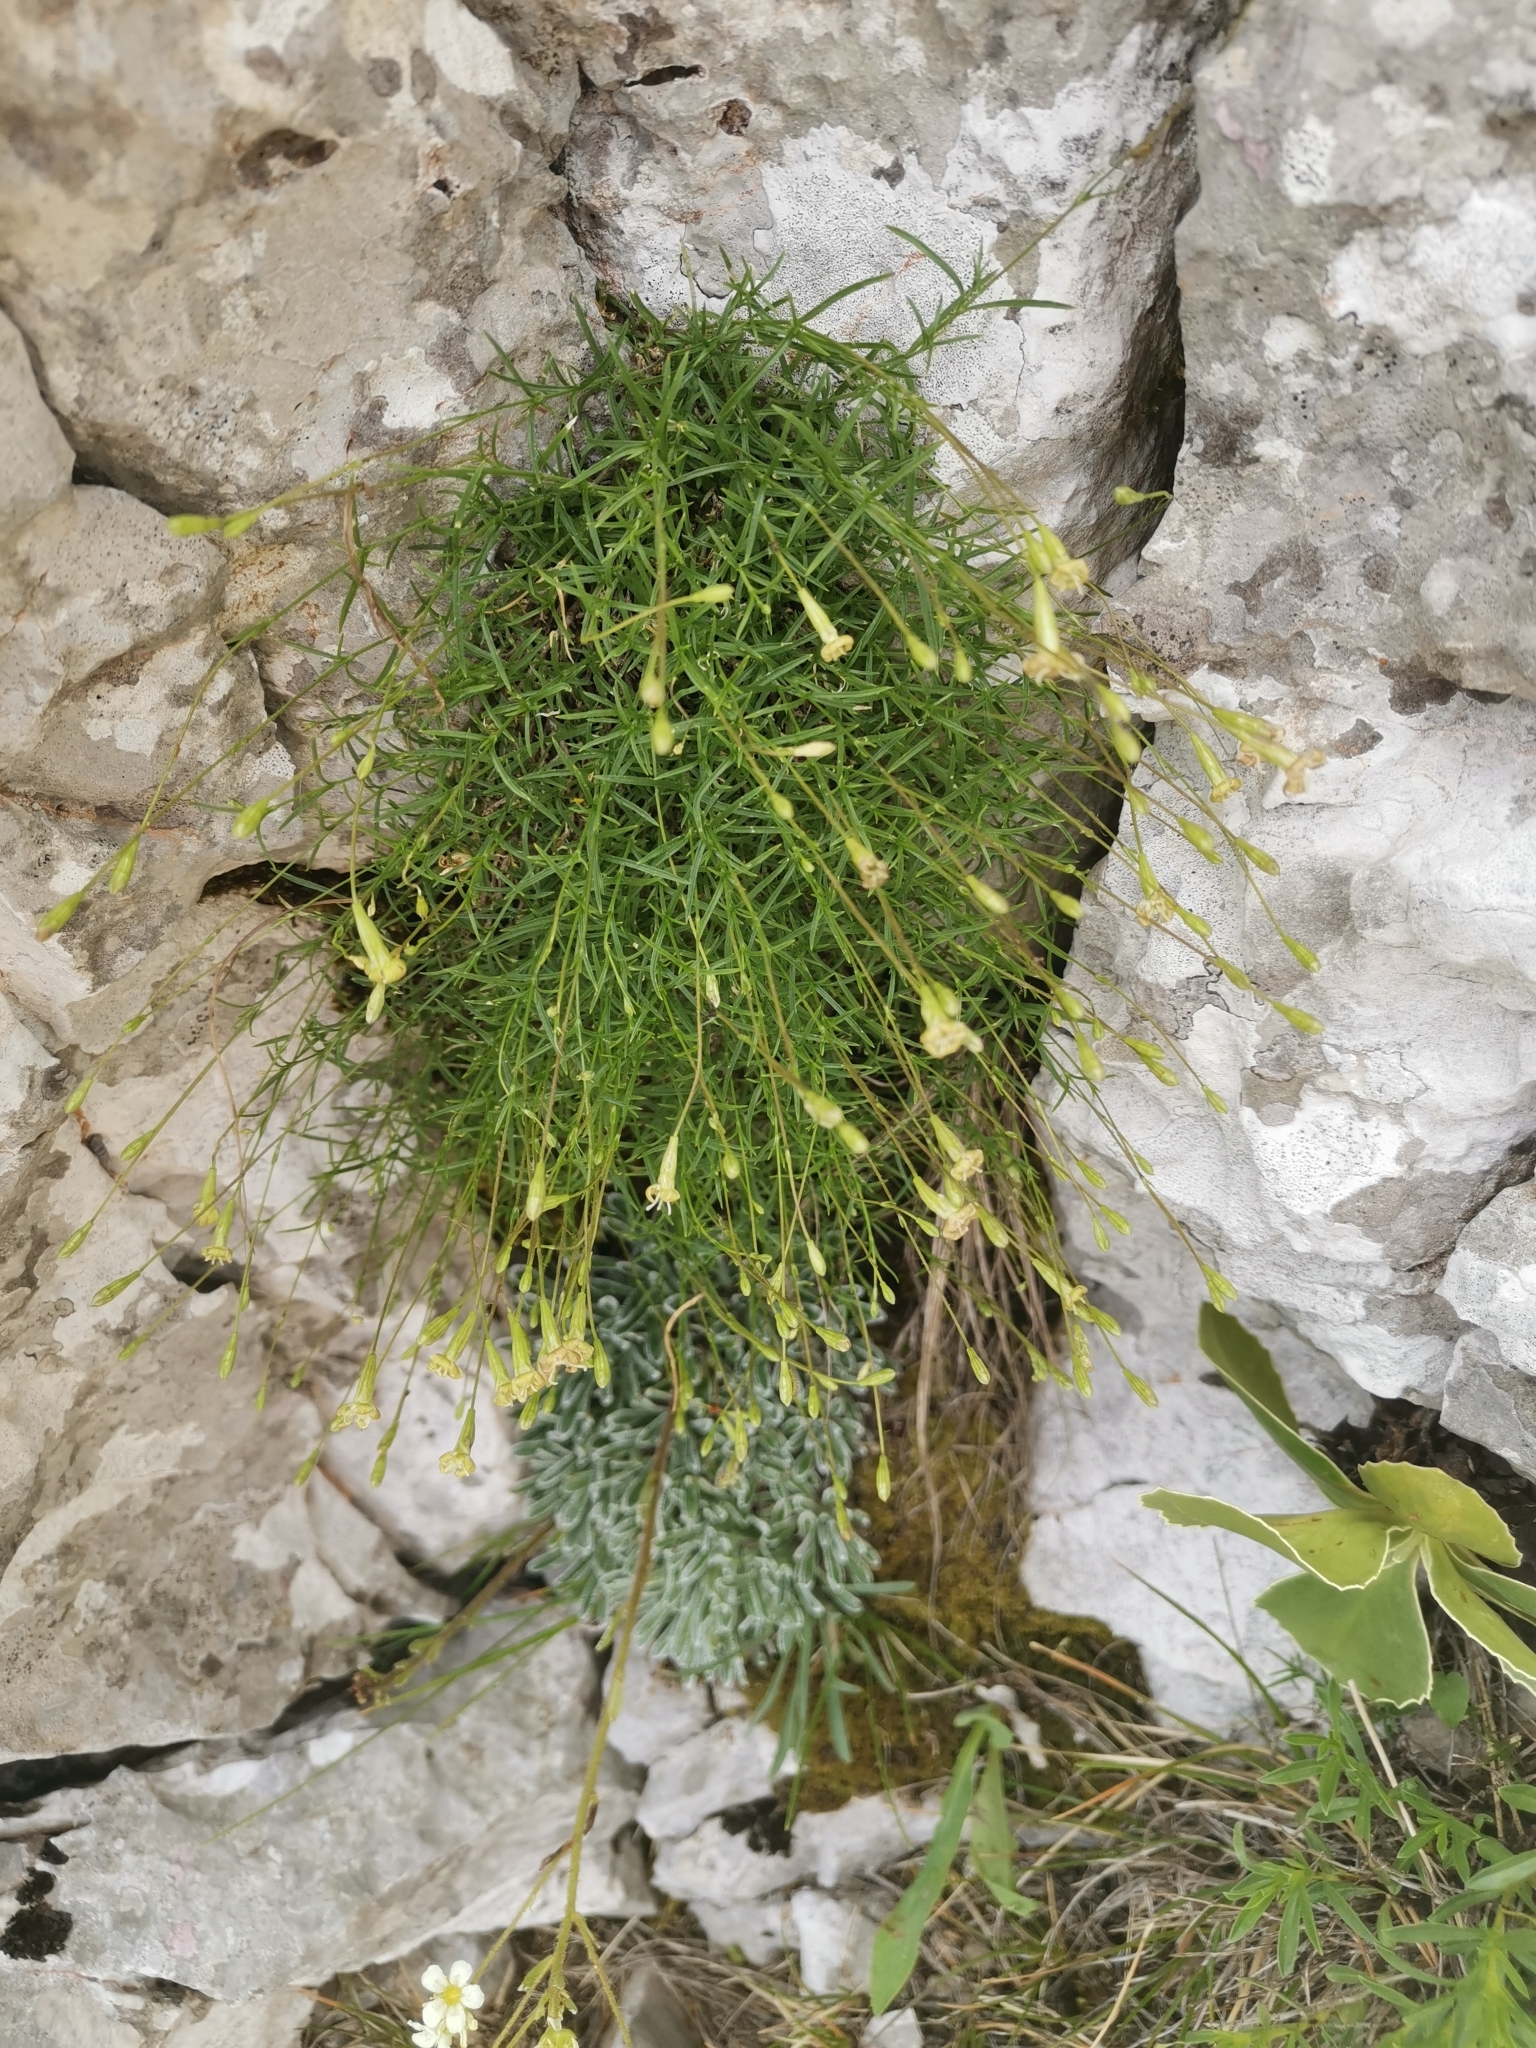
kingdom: Plantae
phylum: Tracheophyta
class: Magnoliopsida
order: Caryophyllales
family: Caryophyllaceae
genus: Silene
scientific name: Silene saxifraga
